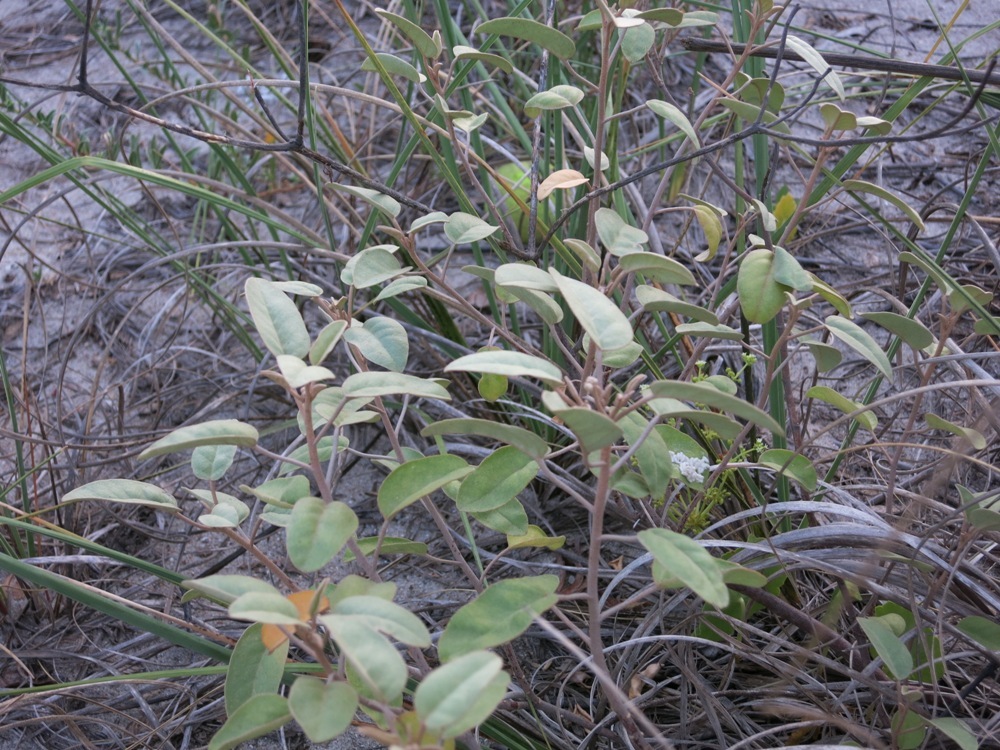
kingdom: Plantae
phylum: Tracheophyta
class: Magnoliopsida
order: Malpighiales
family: Euphorbiaceae
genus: Croton
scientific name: Croton punctatus
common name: Beach-tea
